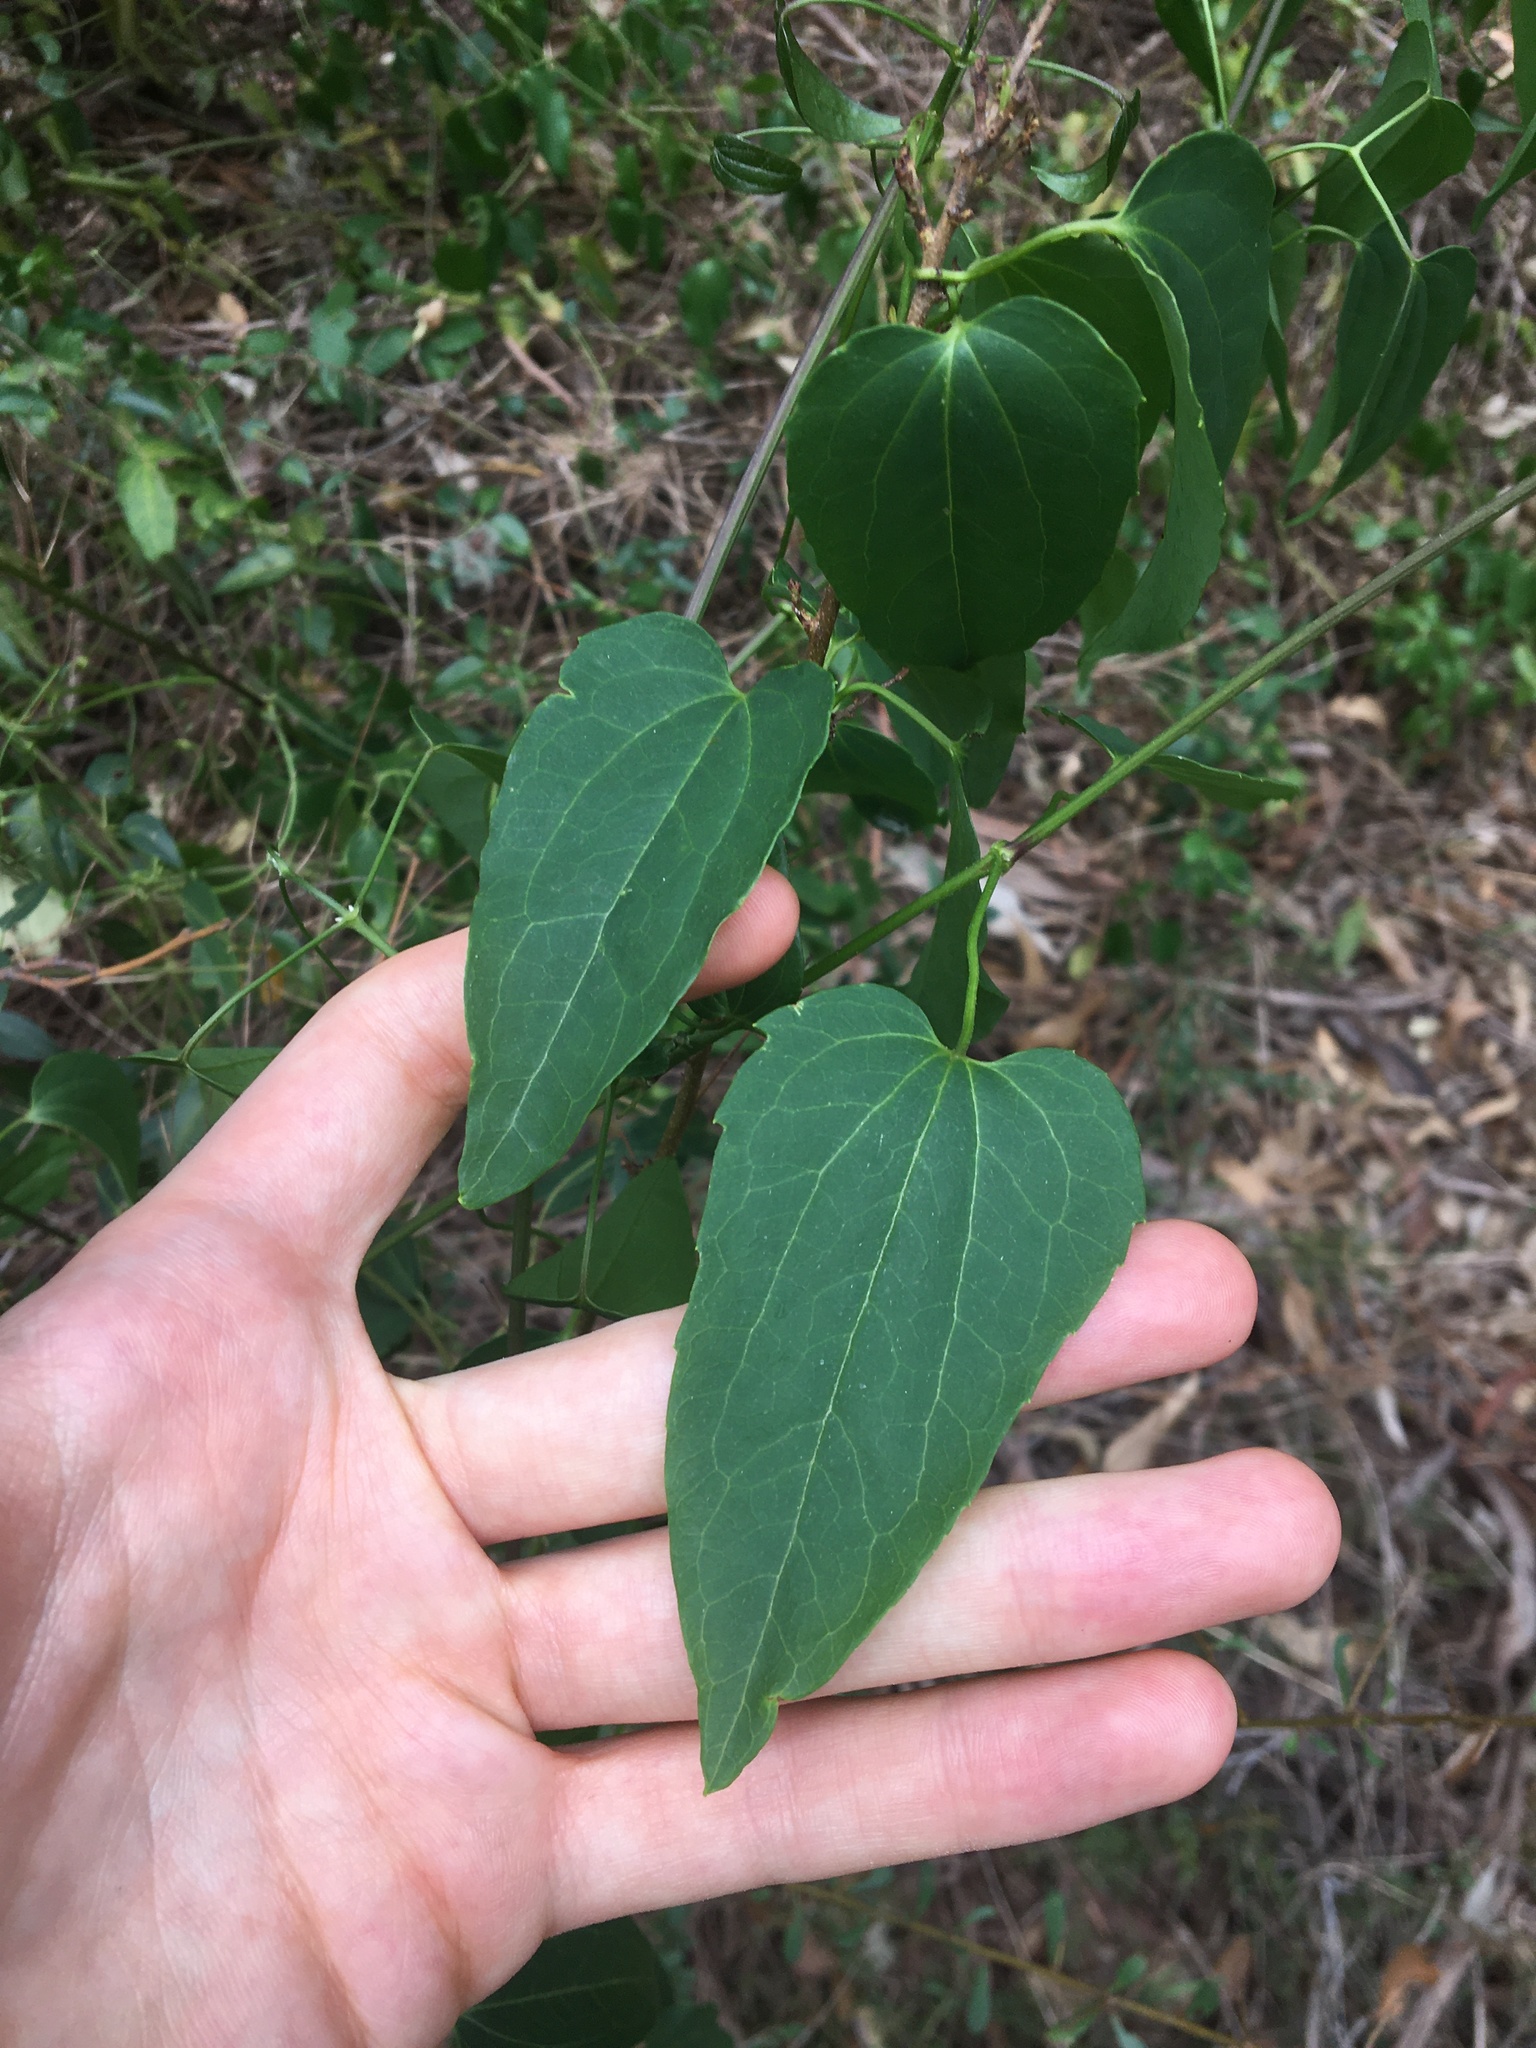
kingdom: Plantae
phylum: Tracheophyta
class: Magnoliopsida
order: Ranunculales
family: Ranunculaceae
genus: Clematis
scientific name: Clematis glycinoides
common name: Forest clematis
